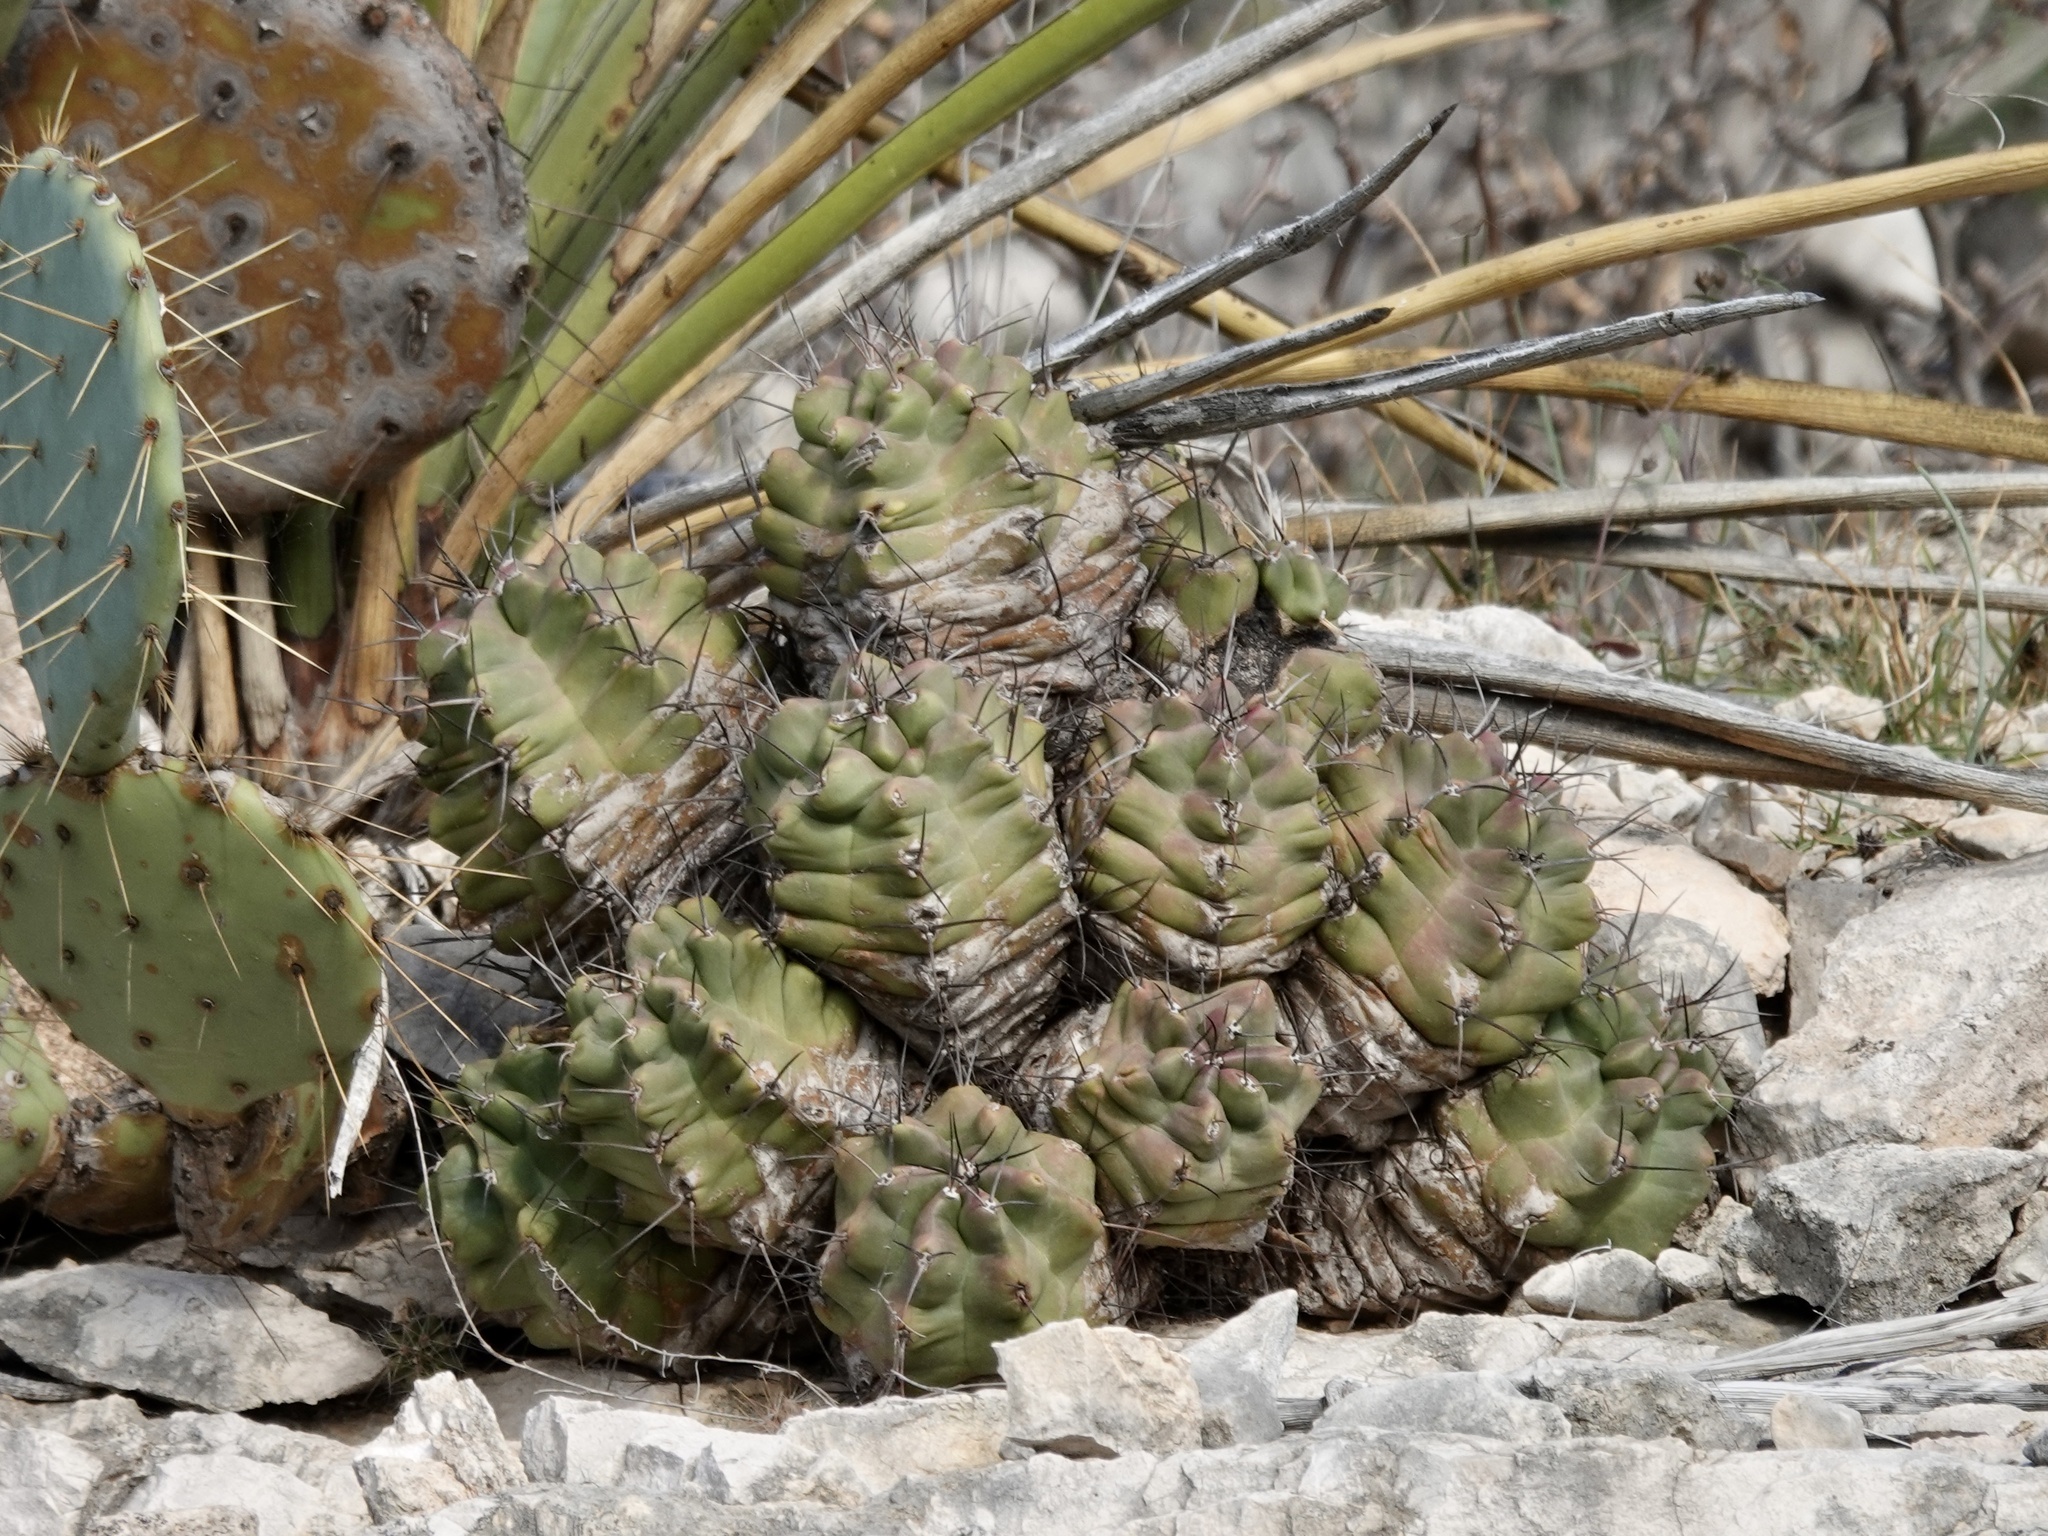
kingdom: Plantae
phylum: Tracheophyta
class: Magnoliopsida
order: Caryophyllales
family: Cactaceae
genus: Echinocereus
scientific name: Echinocereus coccineus
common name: Scarlet hedgehog cactus
